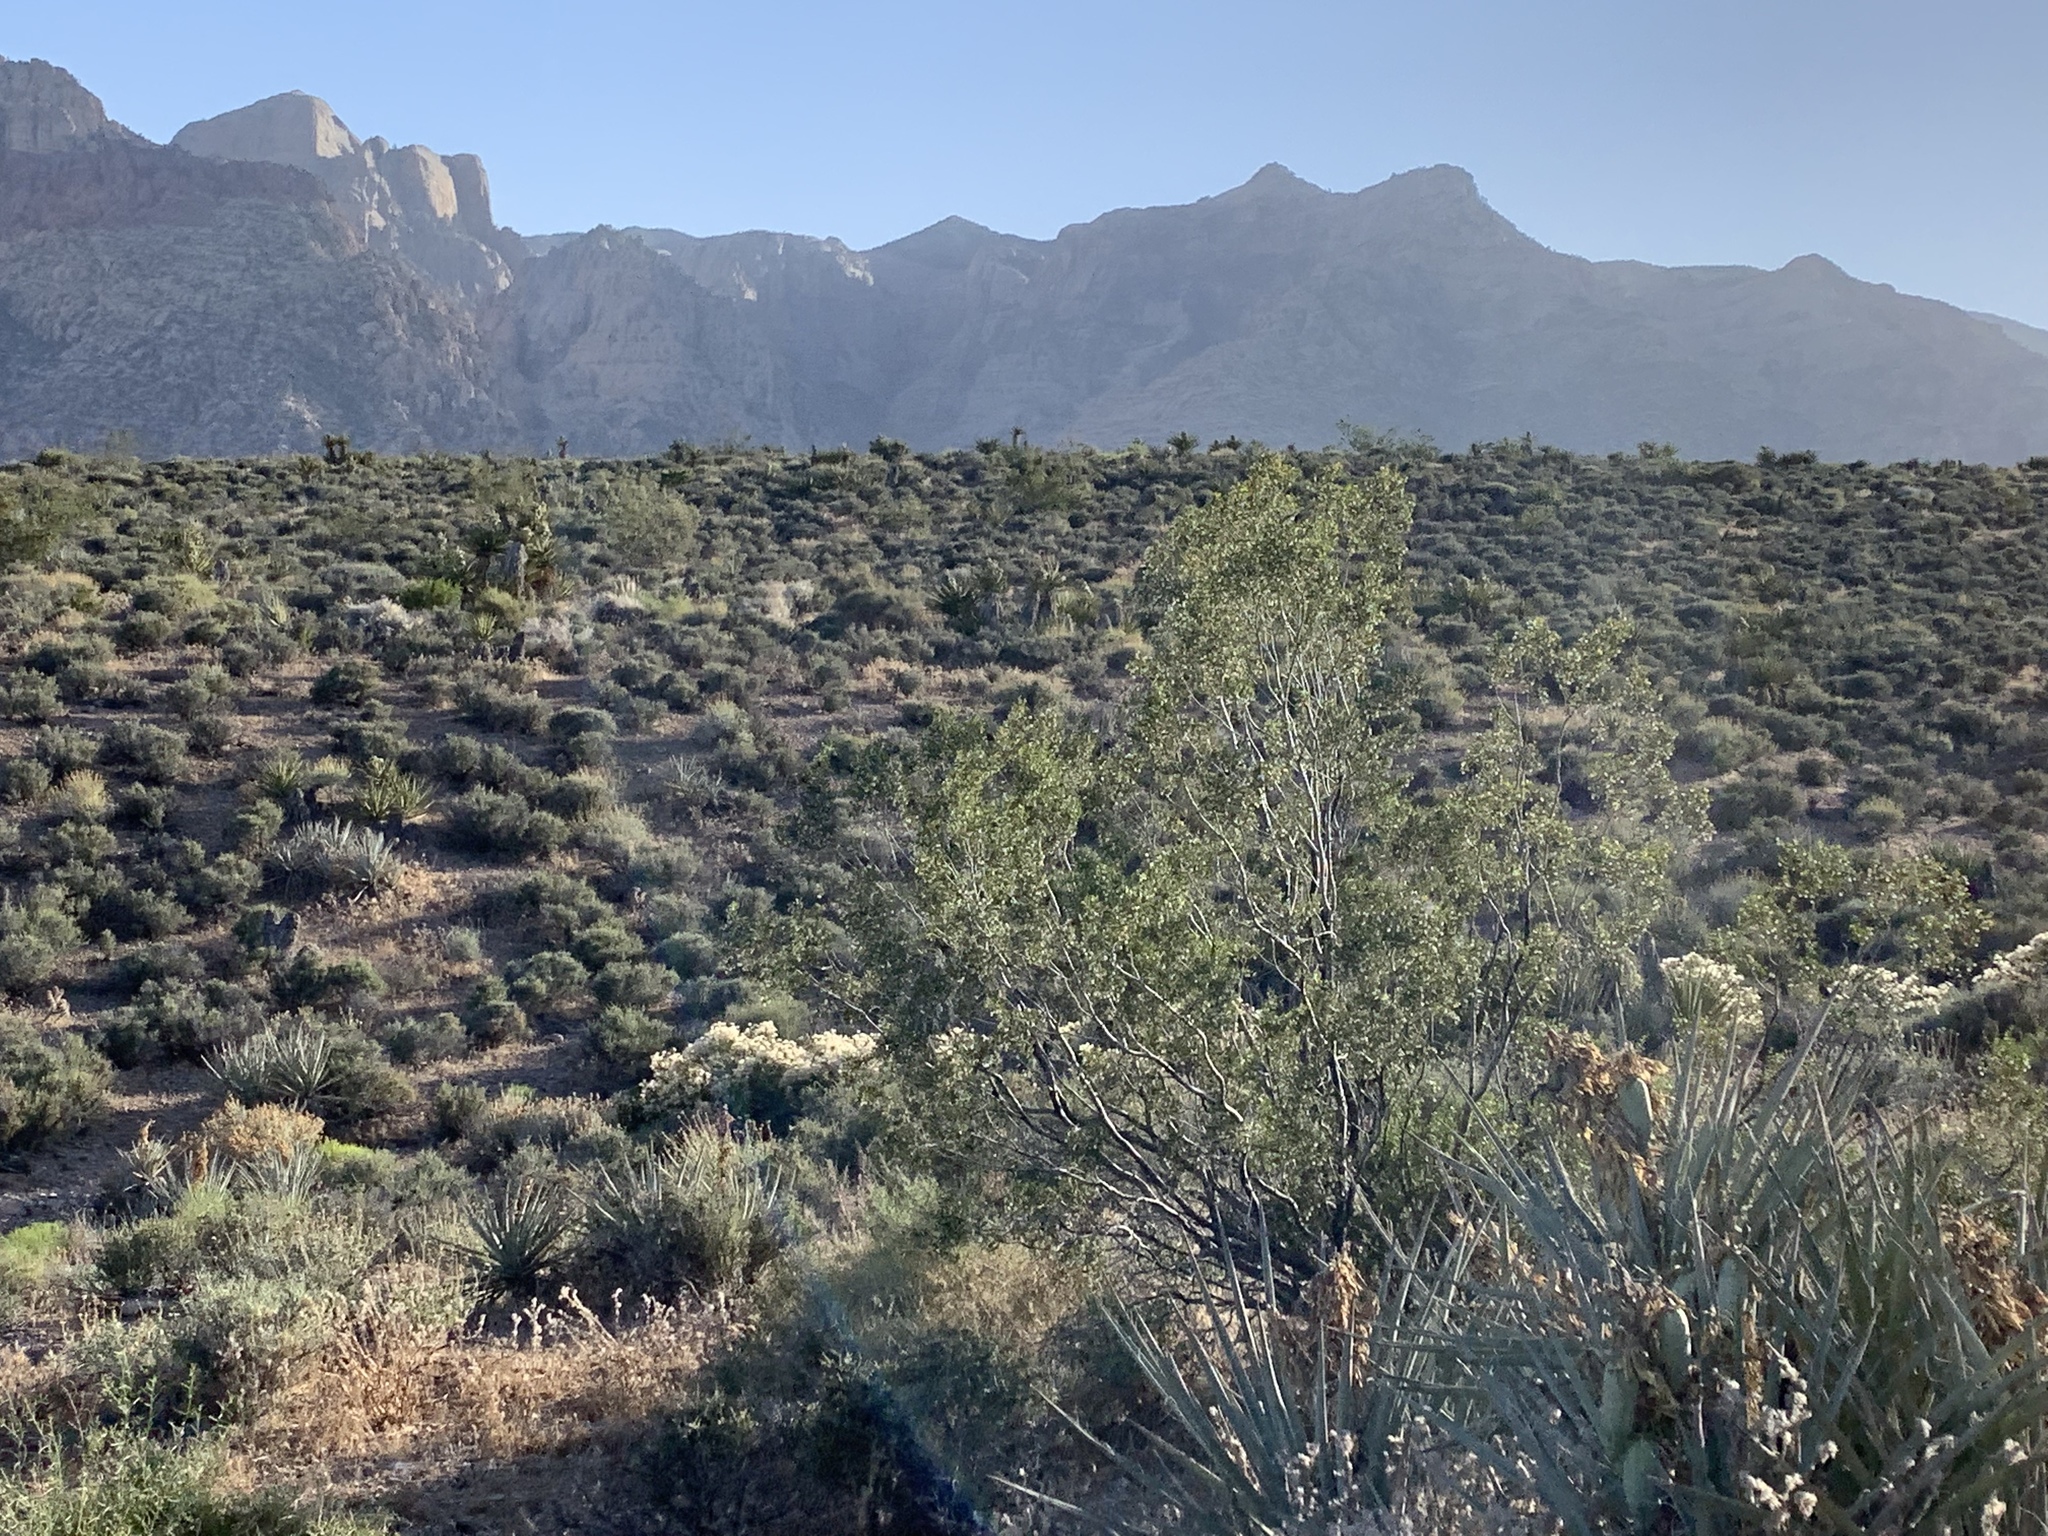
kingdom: Plantae
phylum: Tracheophyta
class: Magnoliopsida
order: Zygophyllales
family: Zygophyllaceae
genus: Larrea
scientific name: Larrea tridentata
